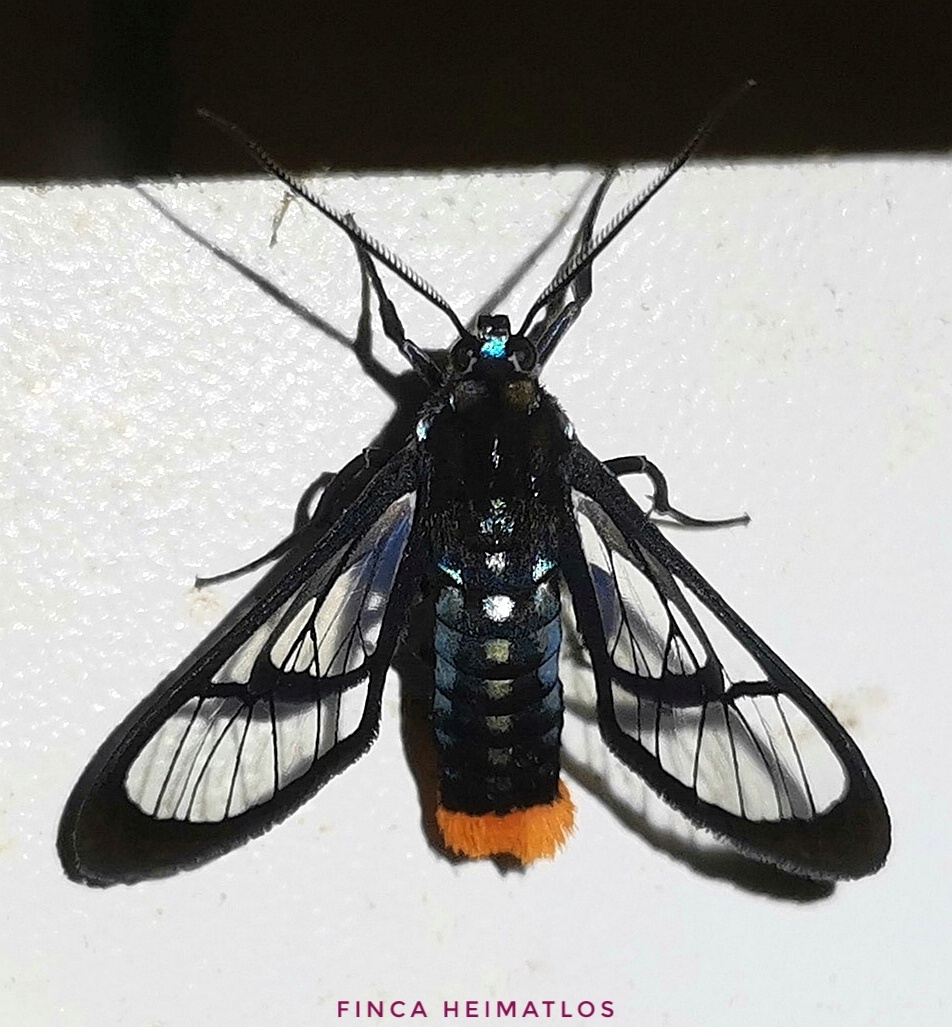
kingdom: Animalia
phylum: Arthropoda
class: Insecta
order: Lepidoptera
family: Erebidae
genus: Phoenicoprocta
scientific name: Phoenicoprocta vacillans
